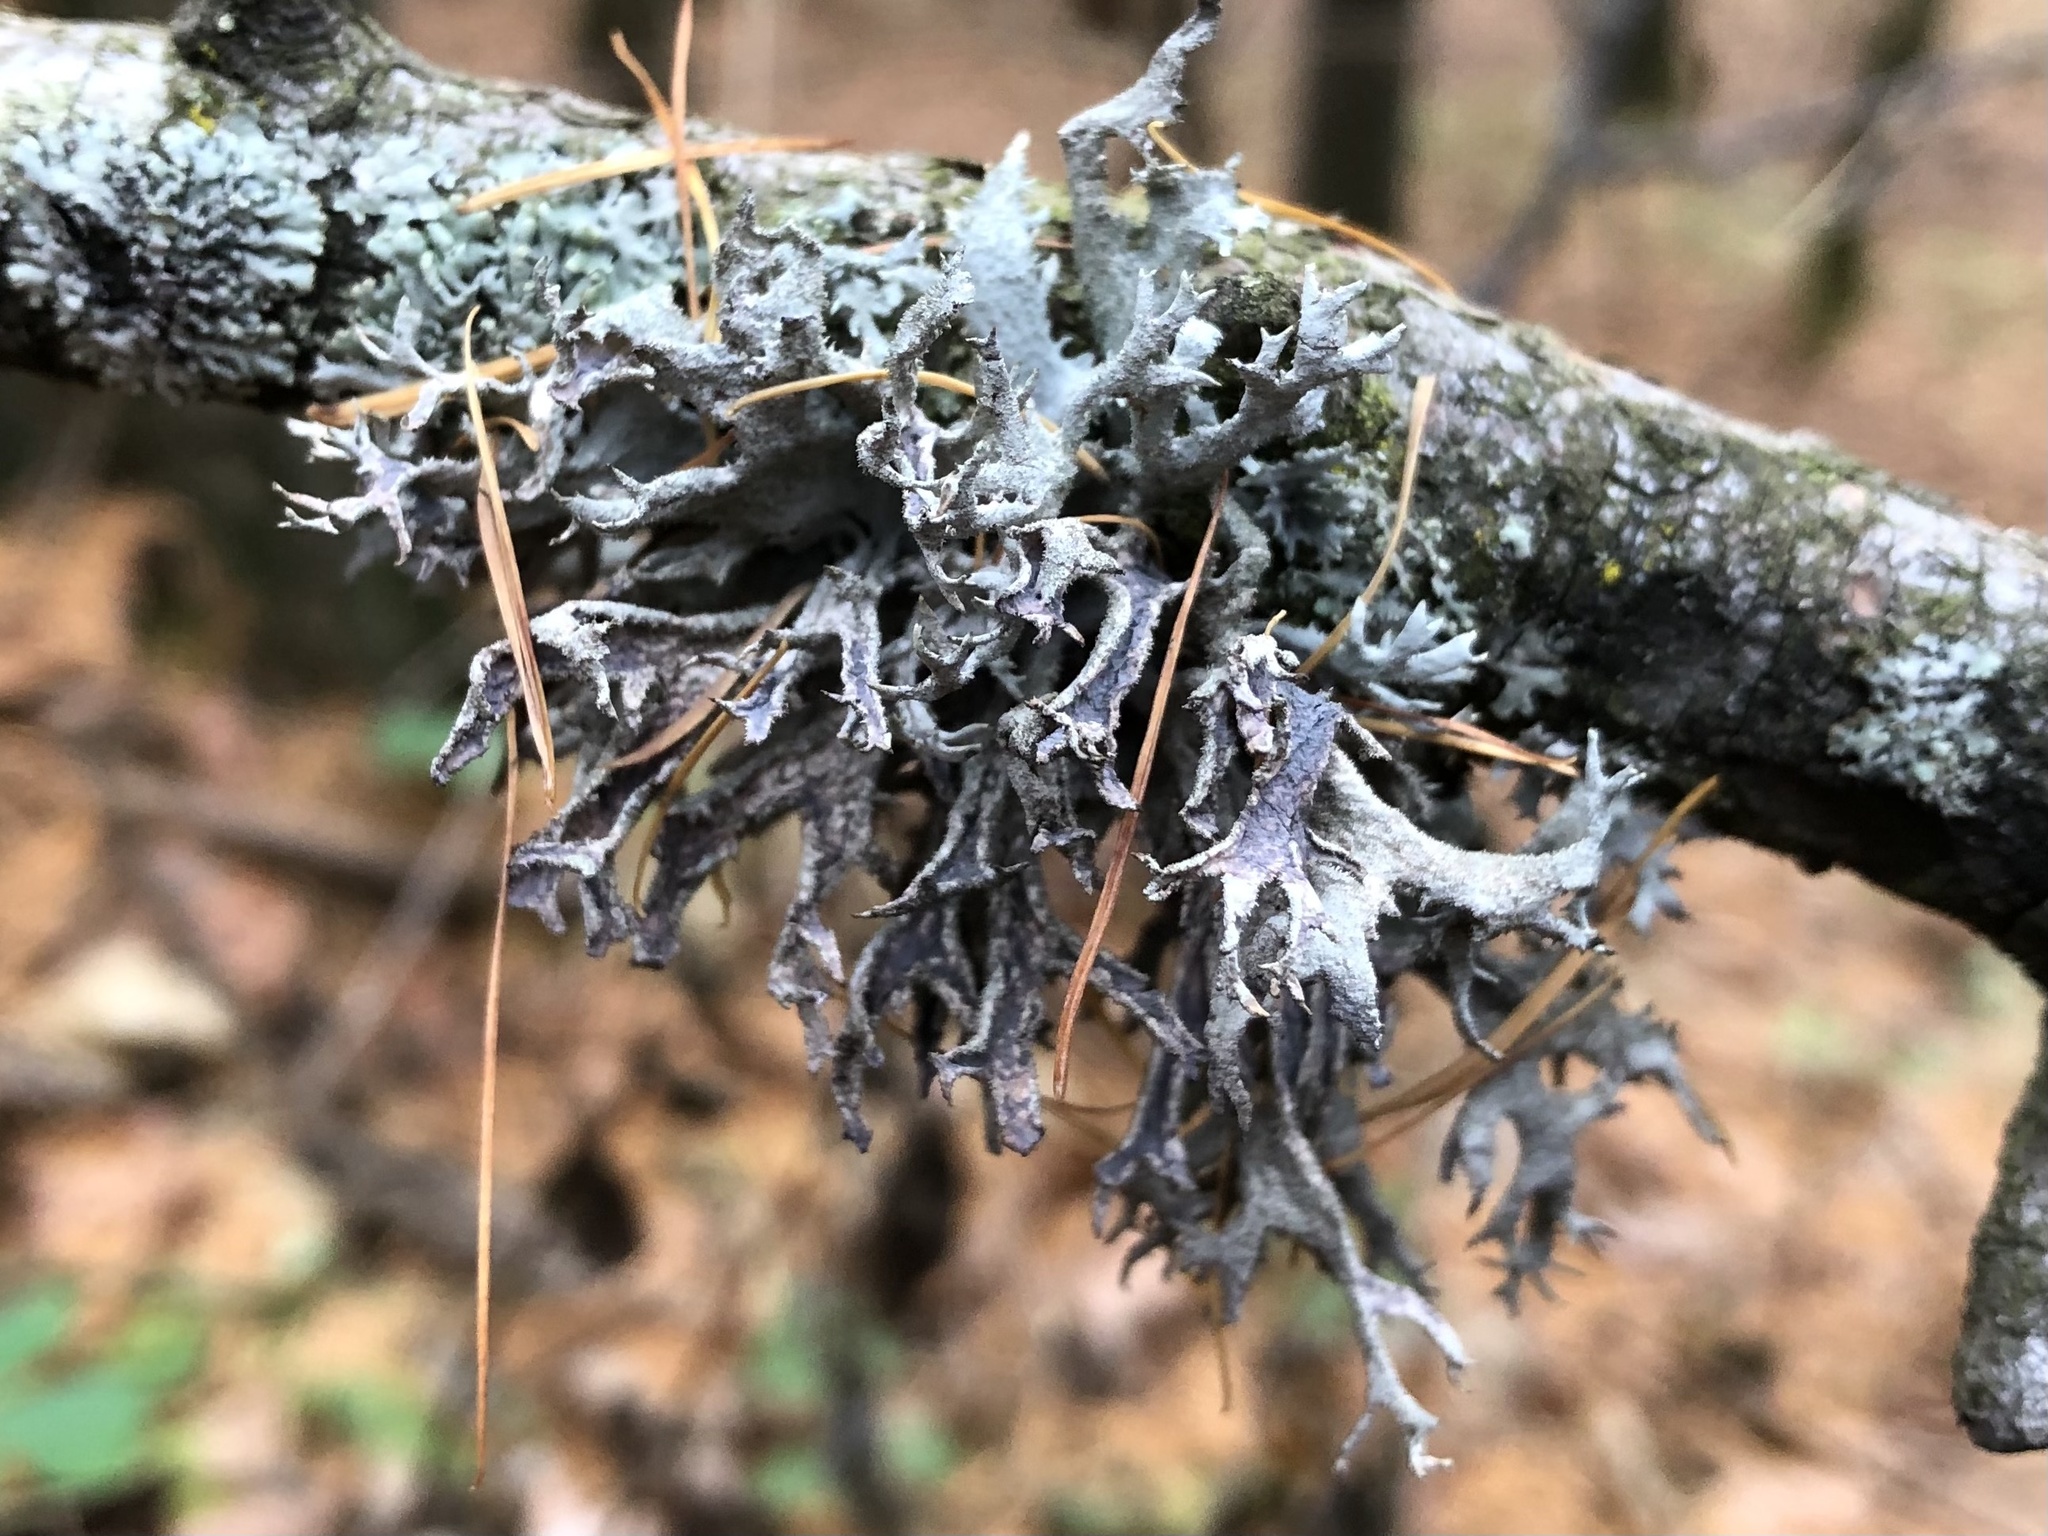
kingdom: Fungi
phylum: Ascomycota
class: Lecanoromycetes
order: Lecanorales
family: Parmeliaceae
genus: Pseudevernia
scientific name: Pseudevernia furfuracea
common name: Tree moss
